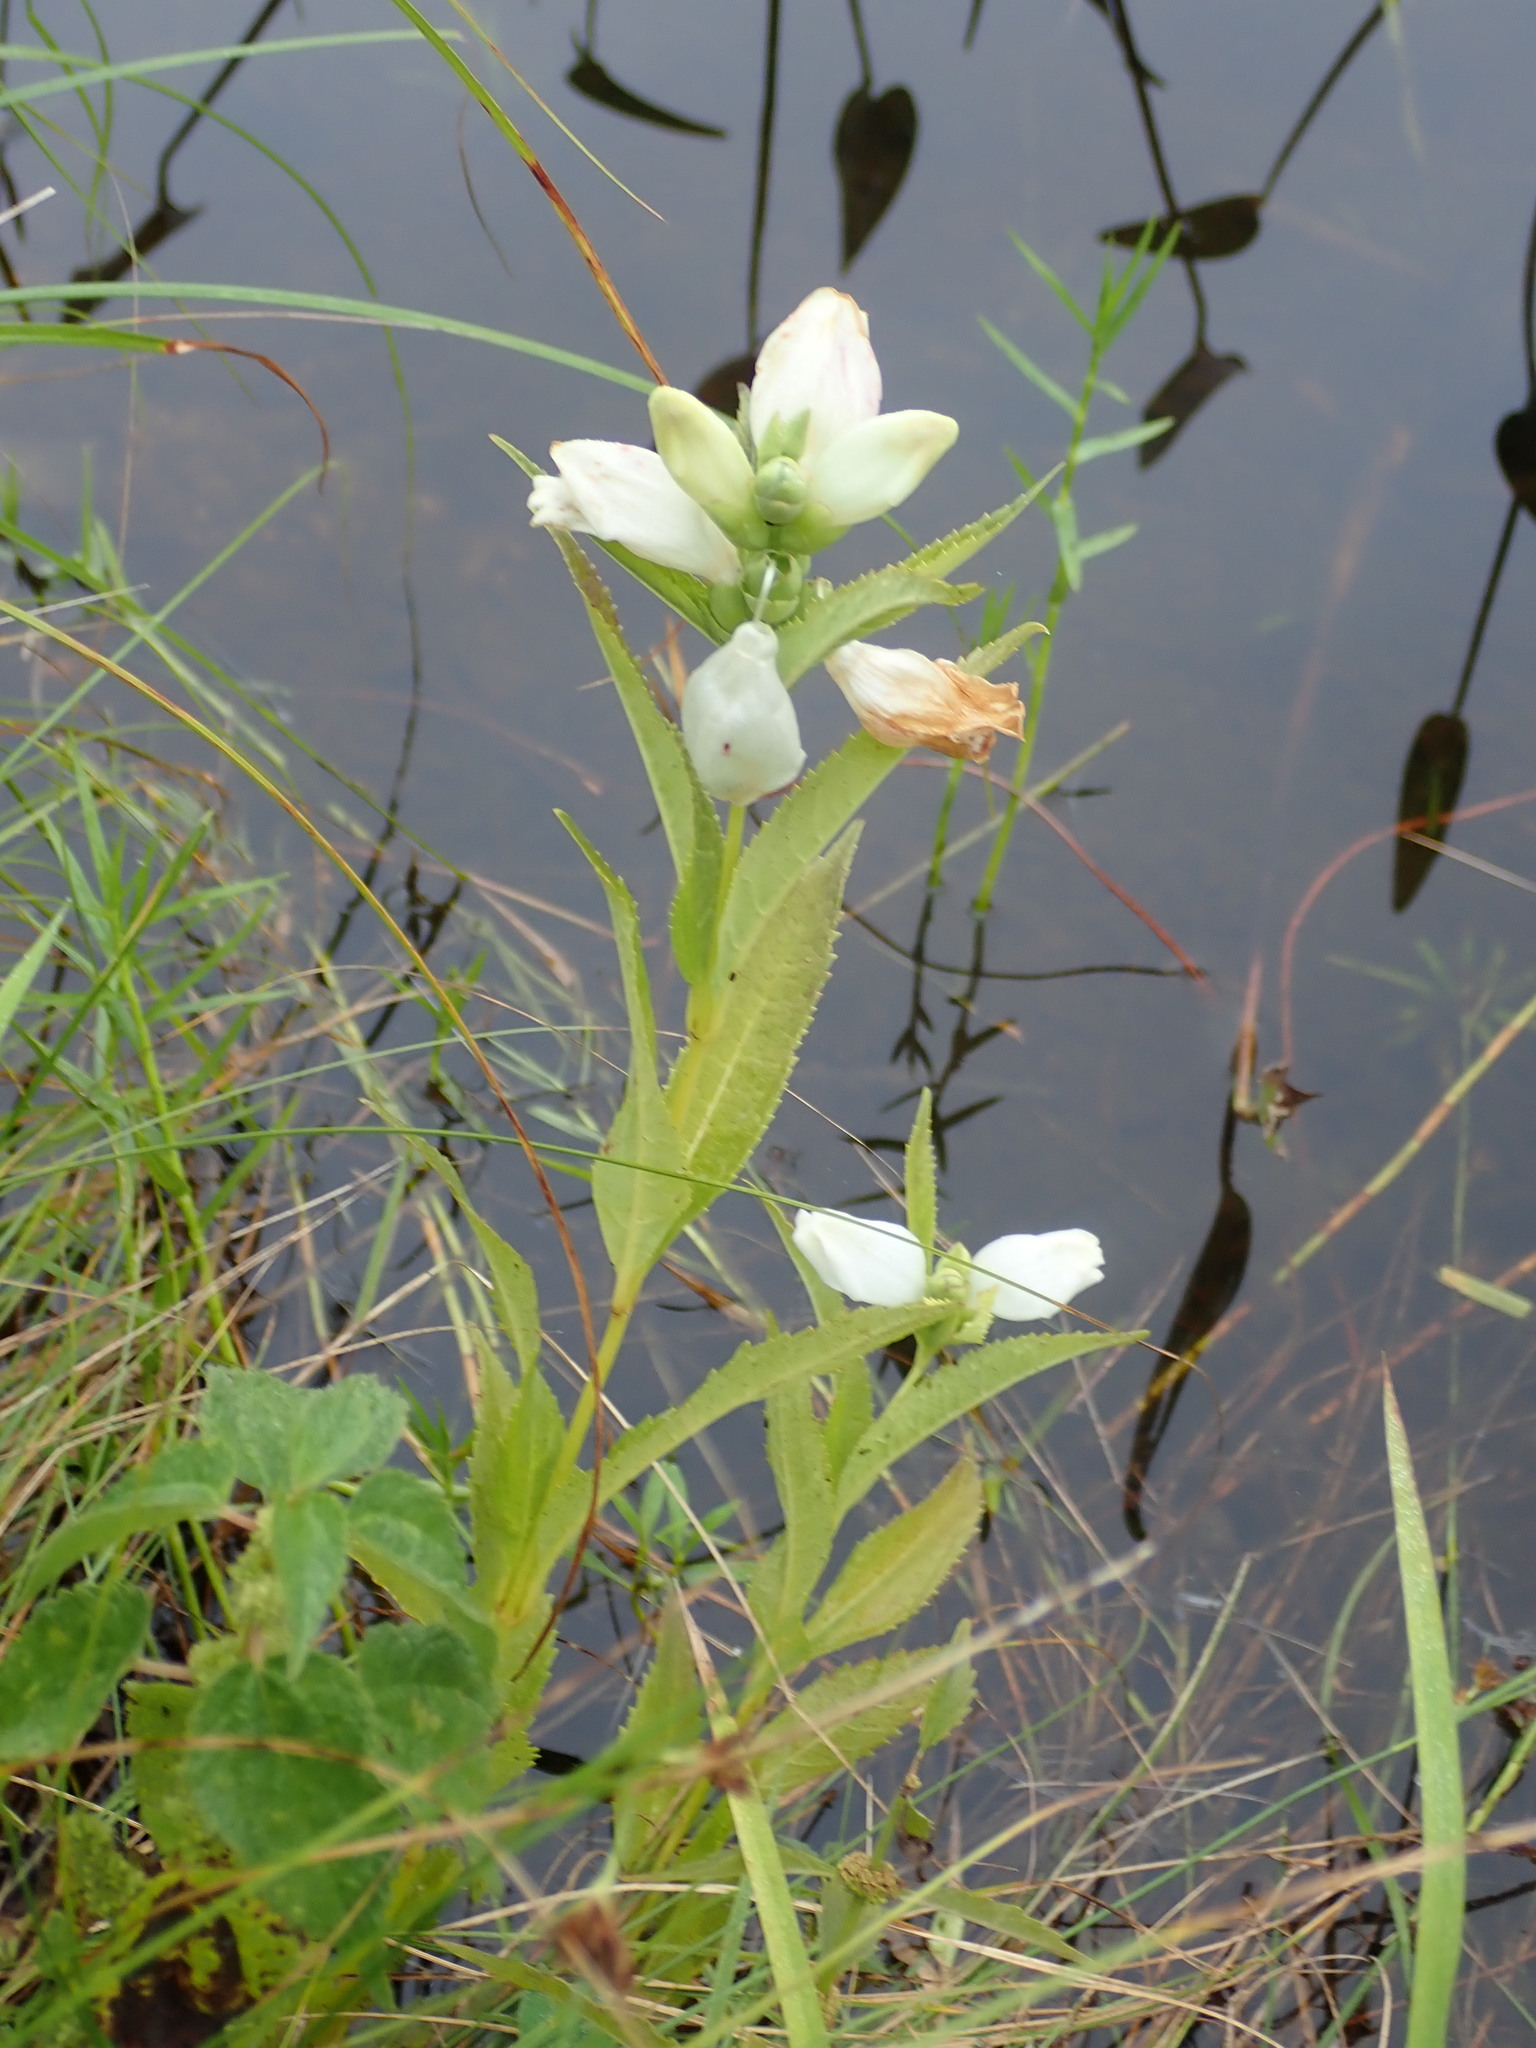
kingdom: Plantae
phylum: Tracheophyta
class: Magnoliopsida
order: Lamiales
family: Plantaginaceae
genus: Chelone
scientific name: Chelone glabra
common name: Snakehead
